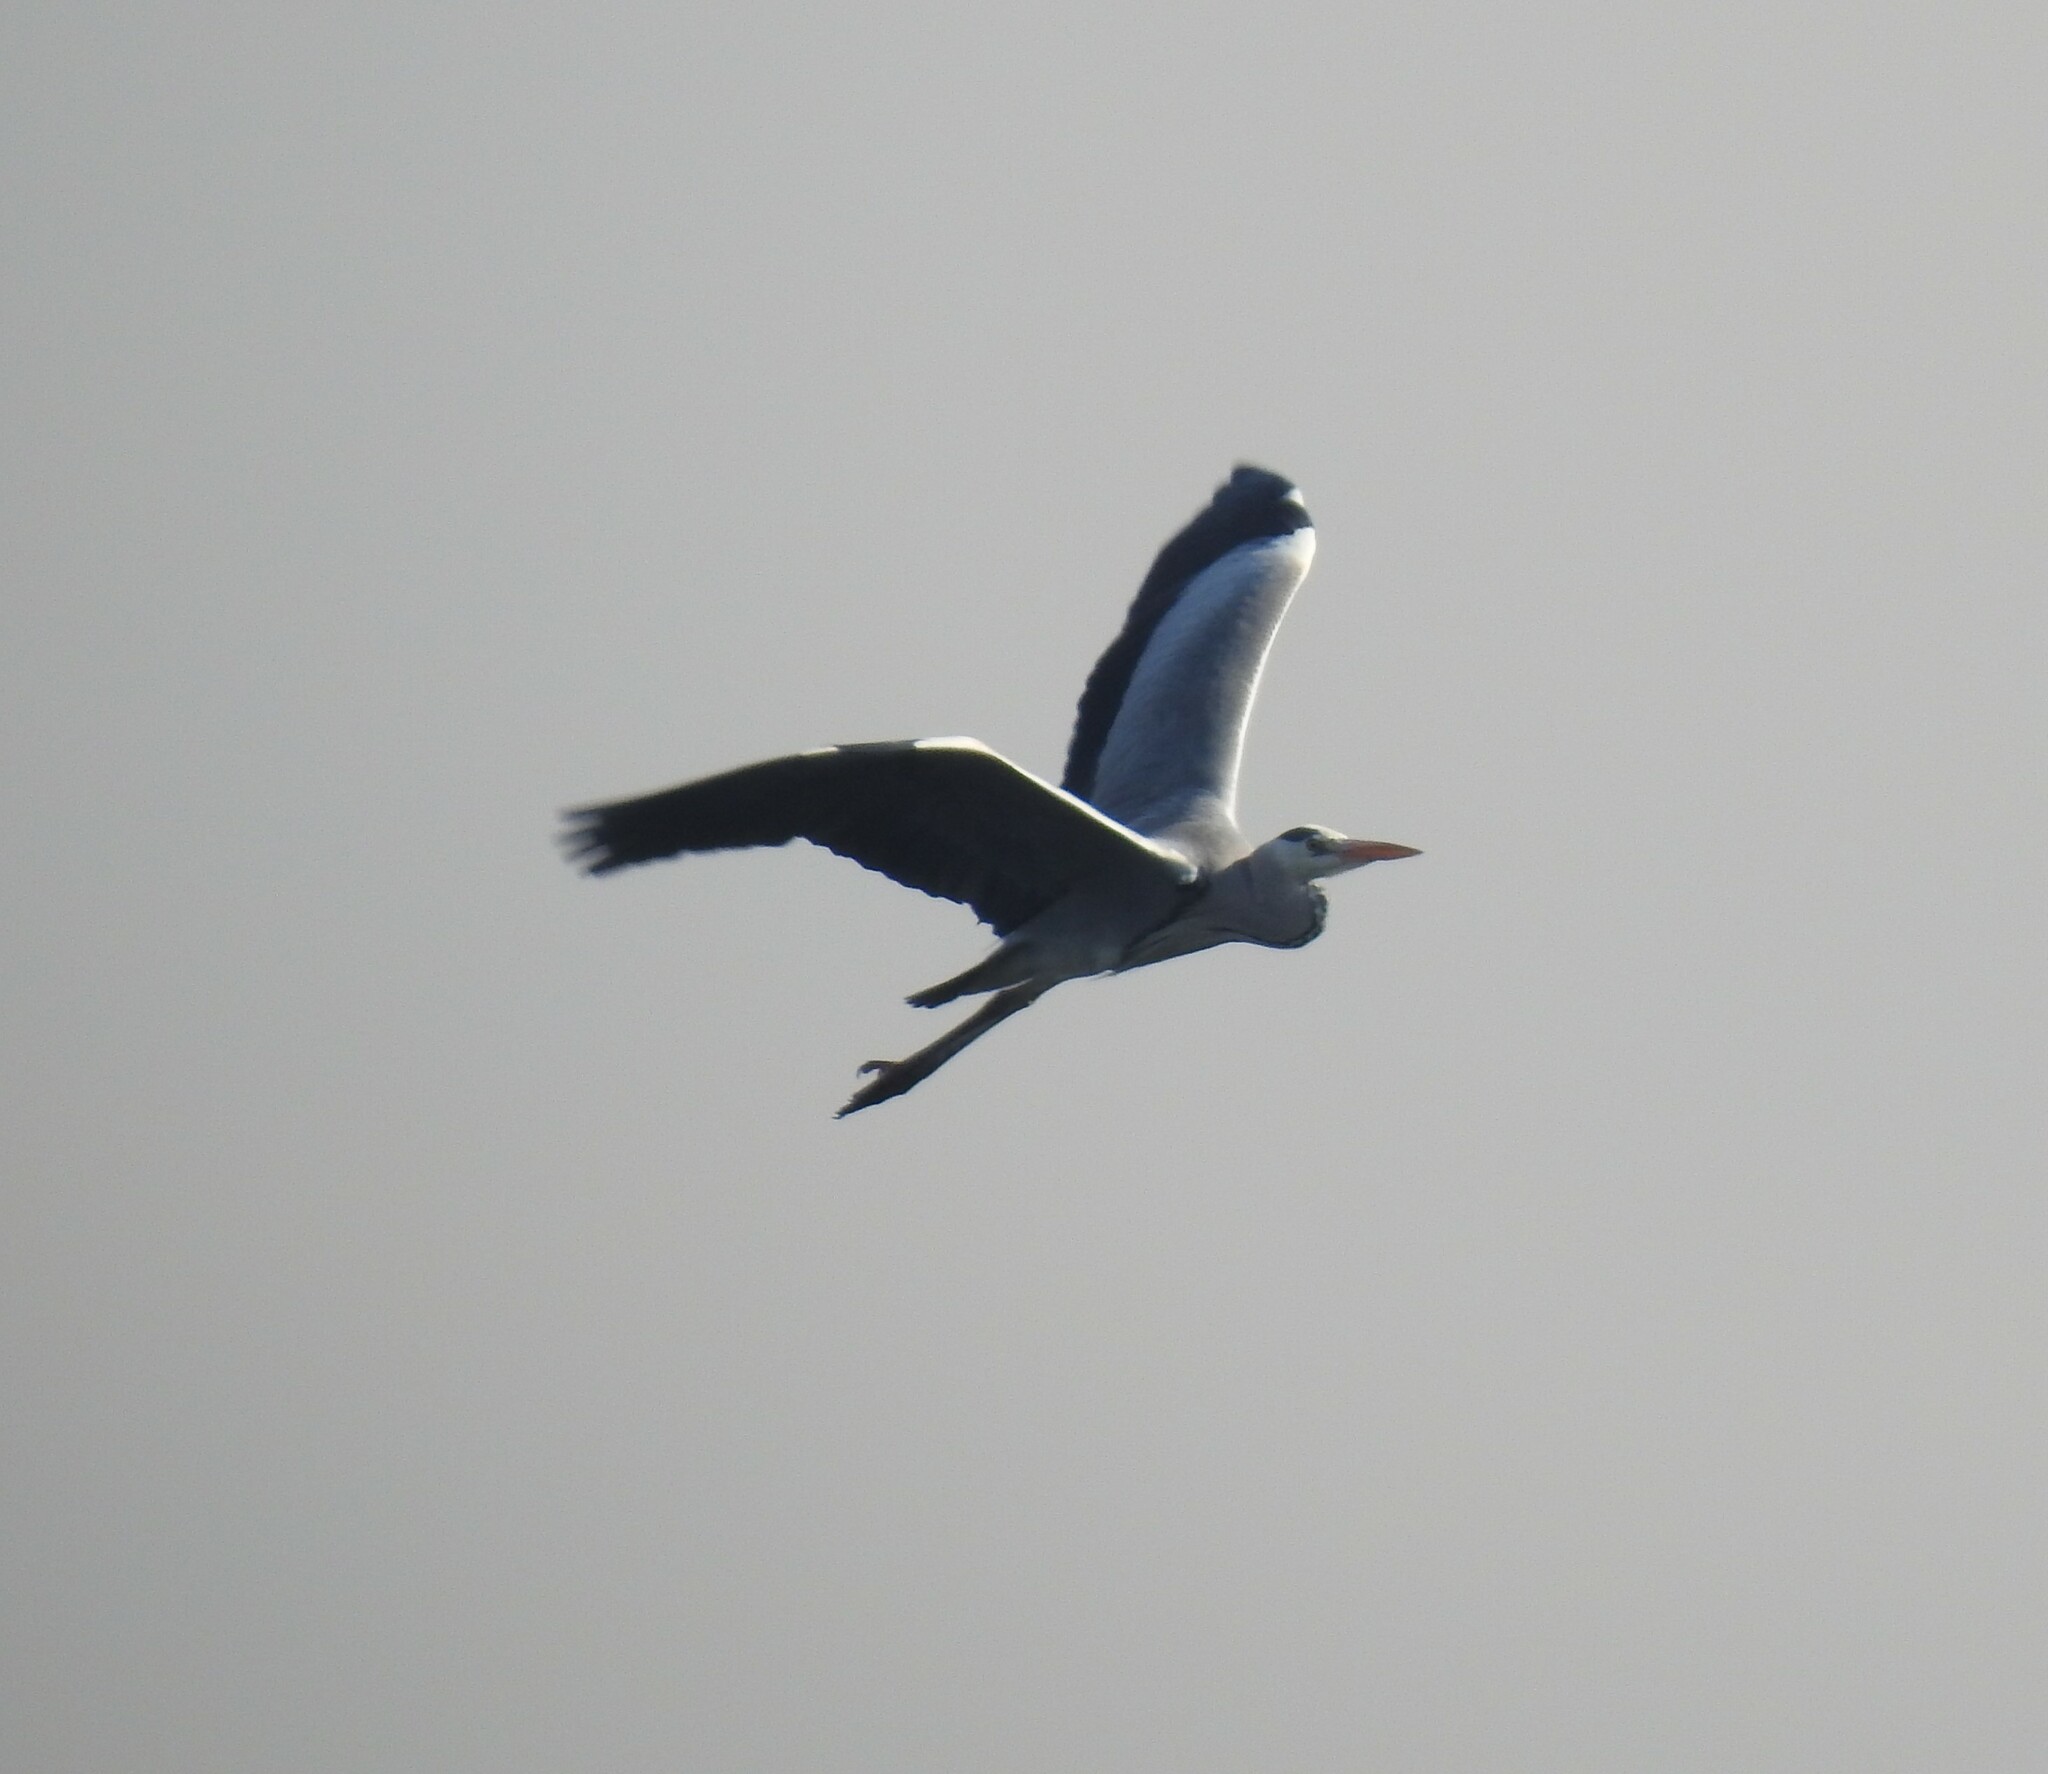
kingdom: Animalia
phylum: Chordata
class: Aves
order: Pelecaniformes
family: Ardeidae
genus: Ardea
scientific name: Ardea cinerea
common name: Grey heron
